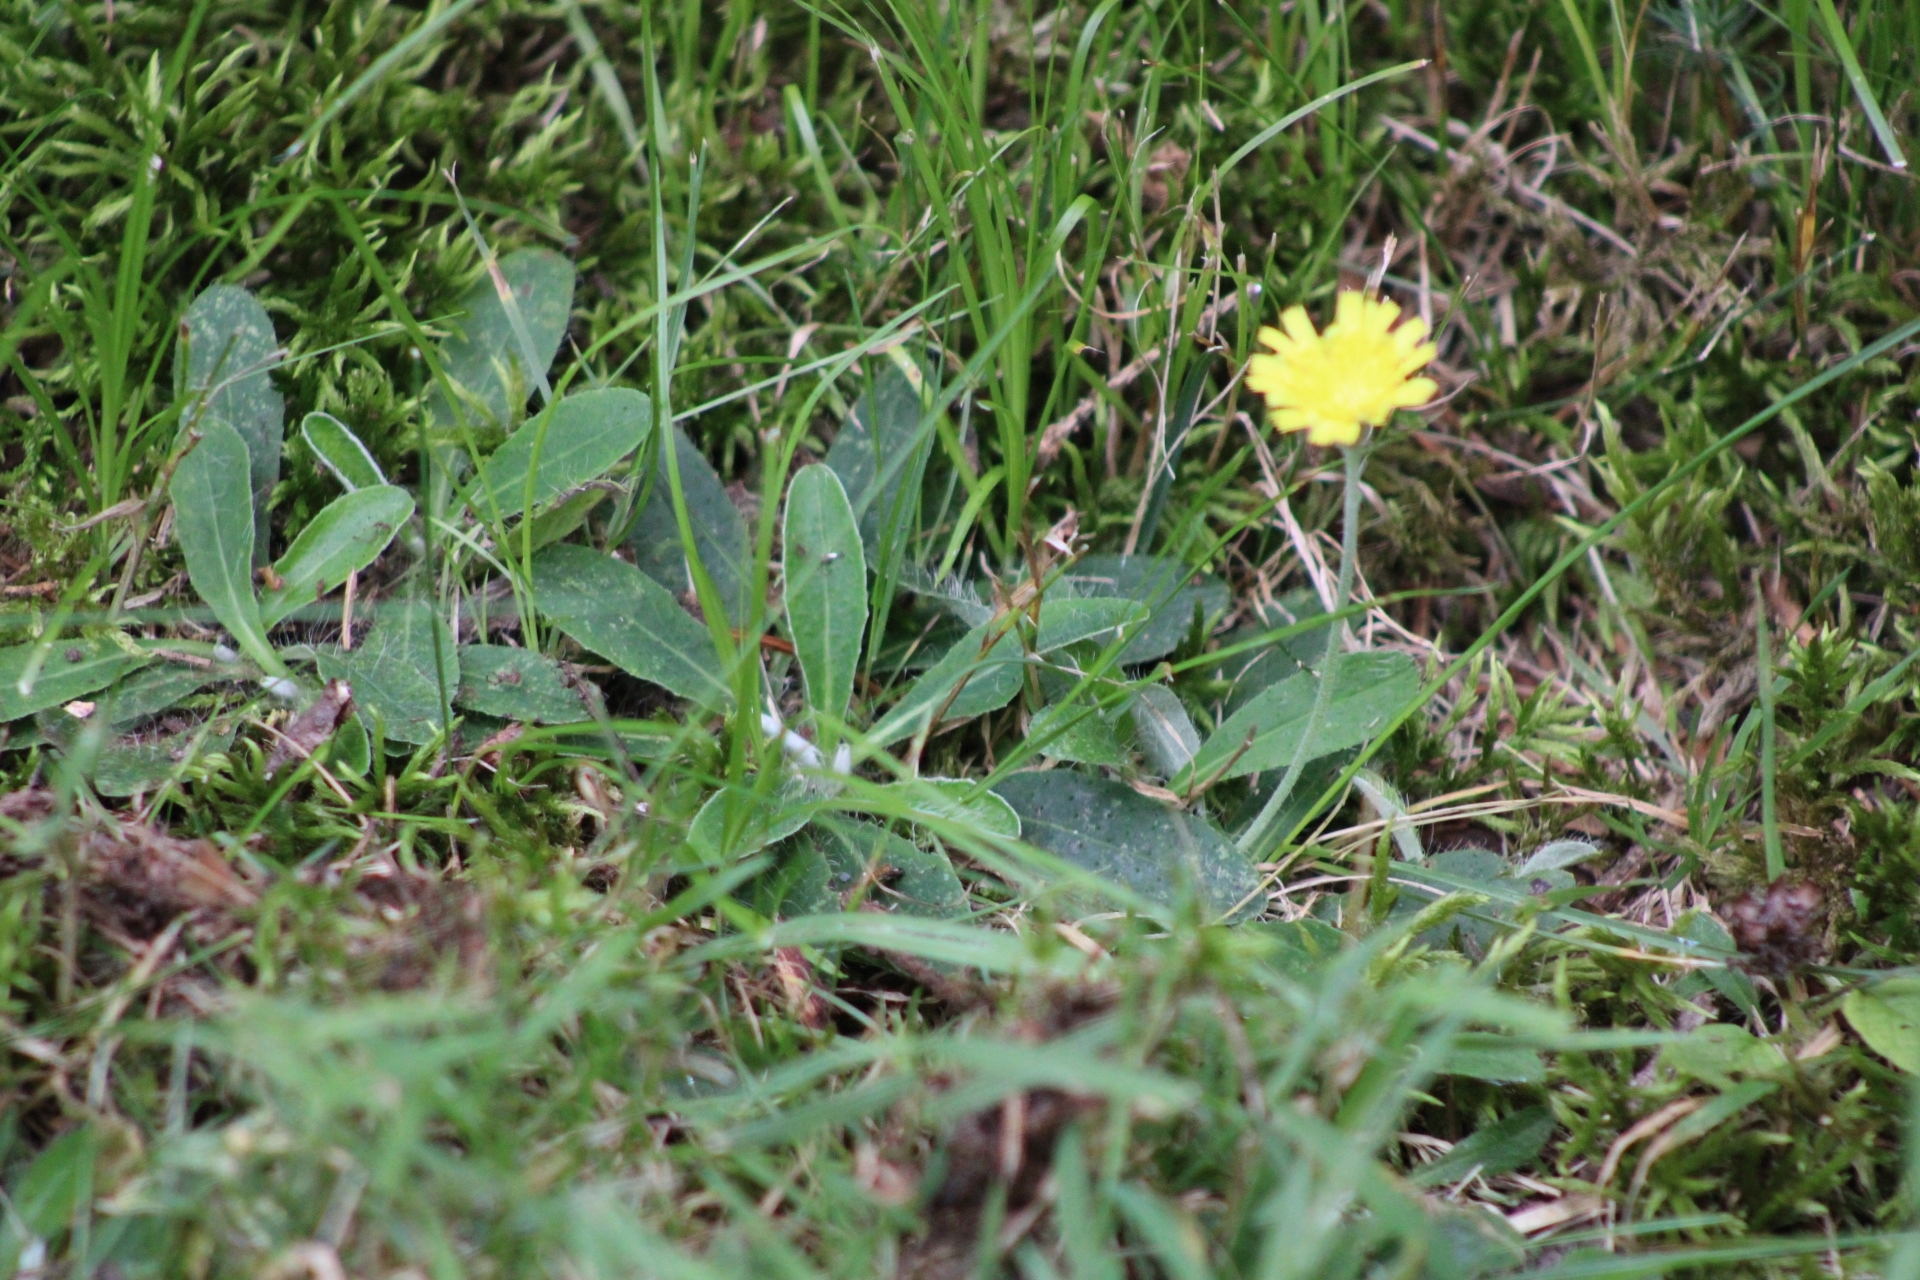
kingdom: Plantae
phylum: Tracheophyta
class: Magnoliopsida
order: Asterales
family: Asteraceae
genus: Pilosella
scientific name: Pilosella officinarum
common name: Mouse-ear hawkweed
